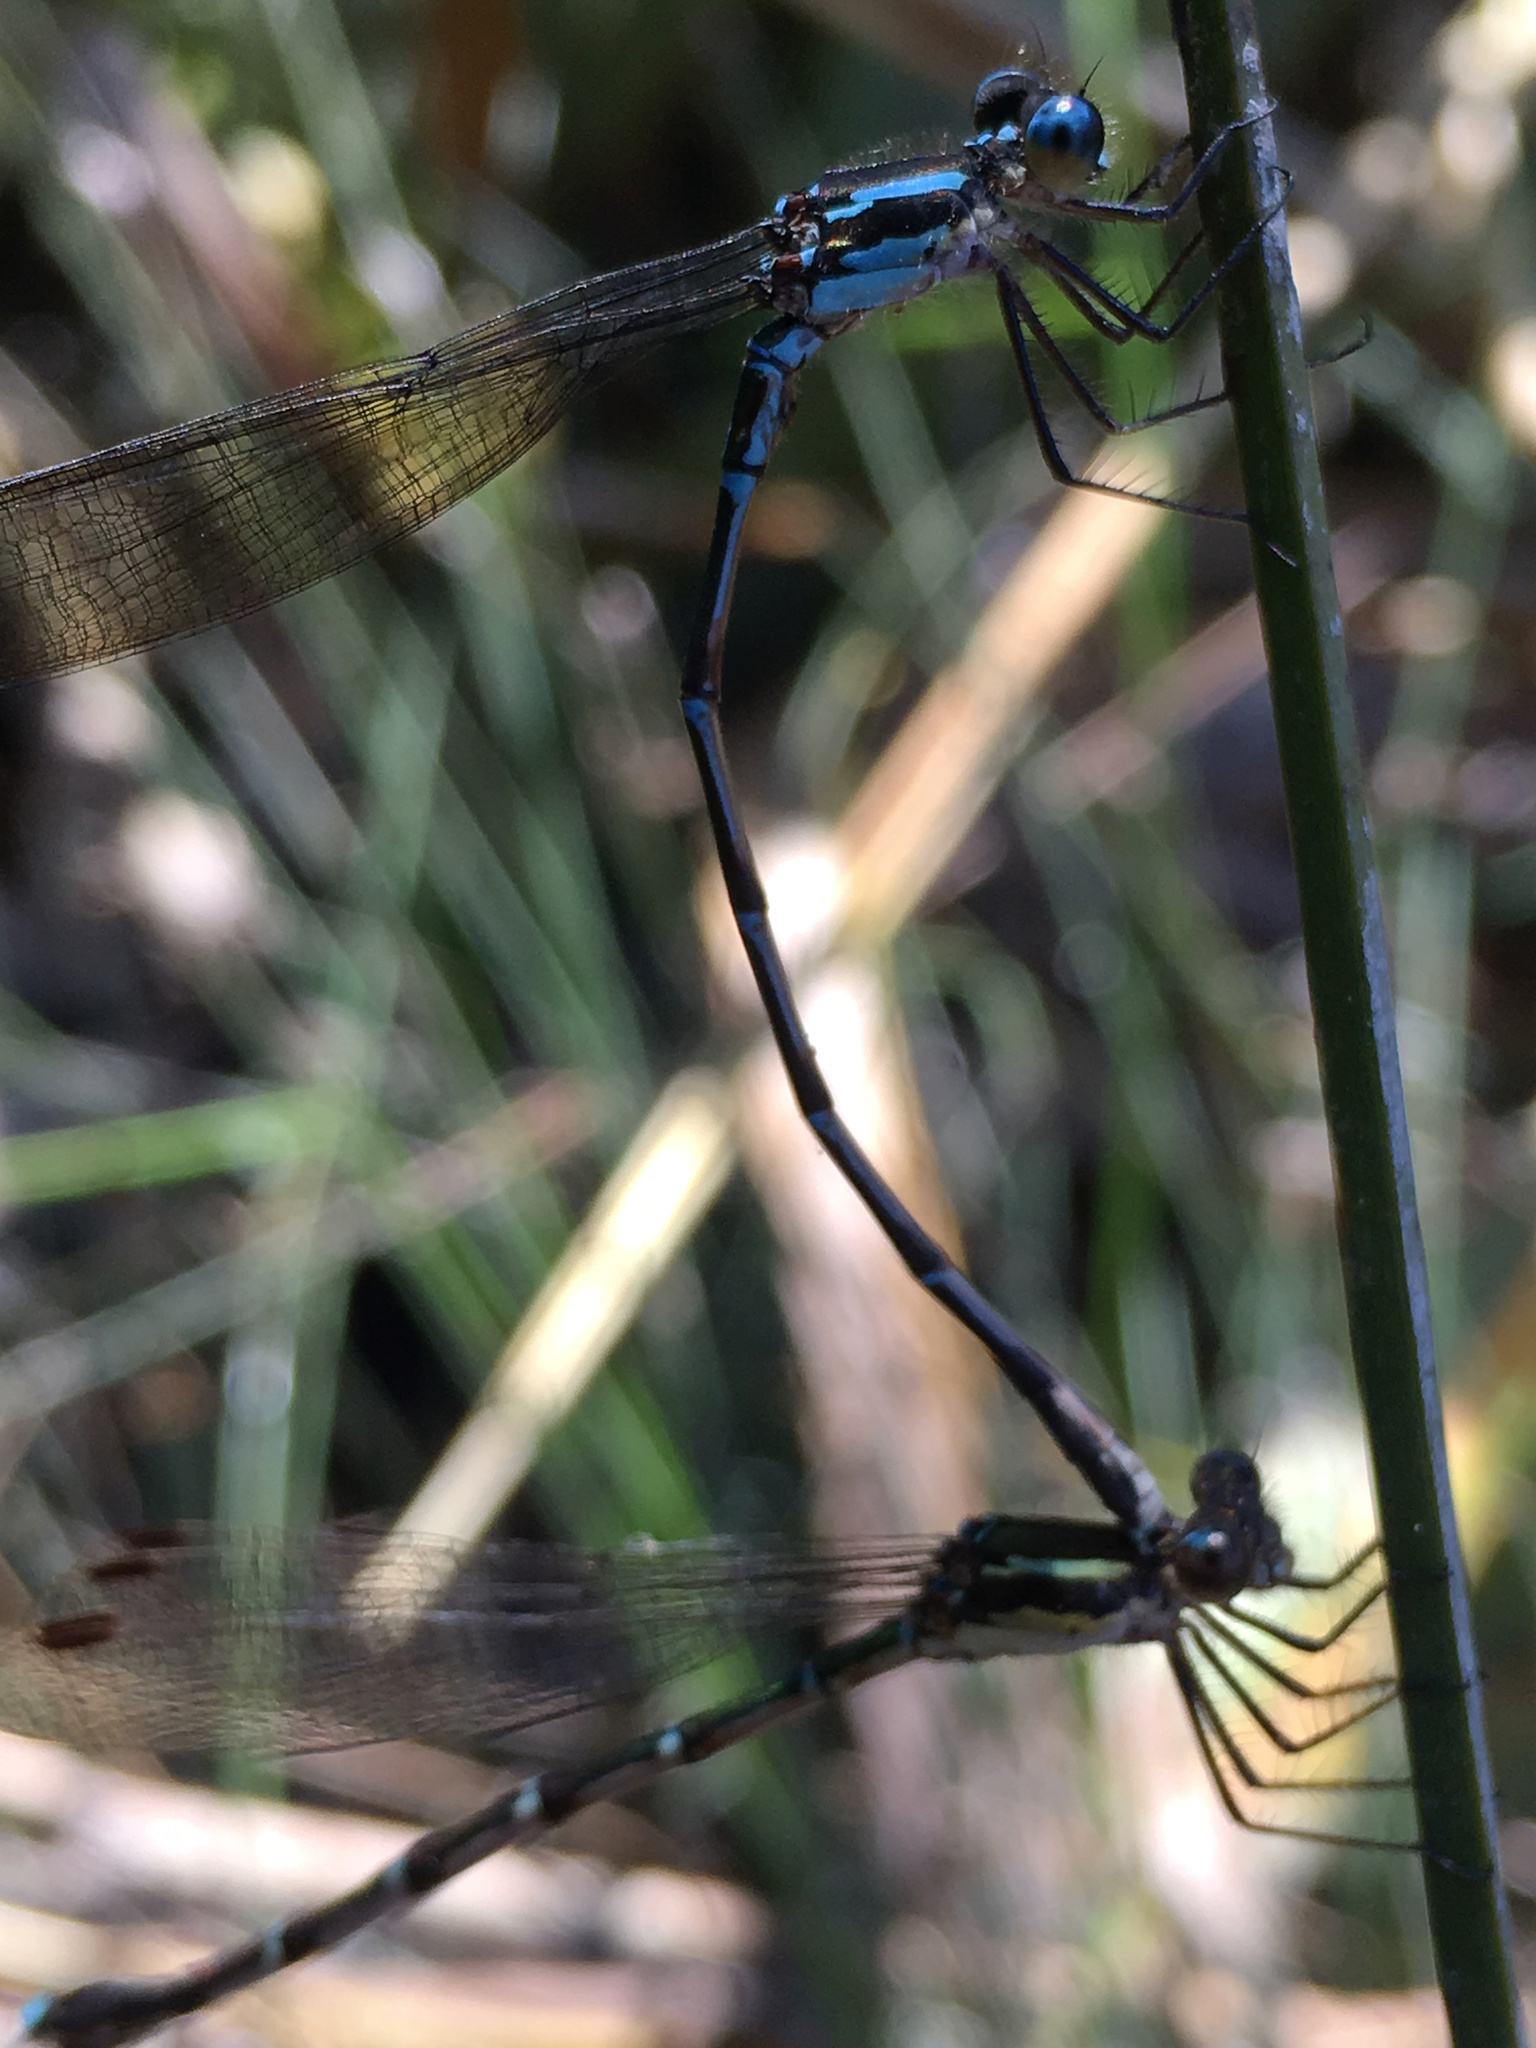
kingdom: Animalia
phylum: Arthropoda
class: Insecta
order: Odonata
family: Lestidae
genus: Austrolestes
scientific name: Austrolestes colensonis
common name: Blue damselfly
